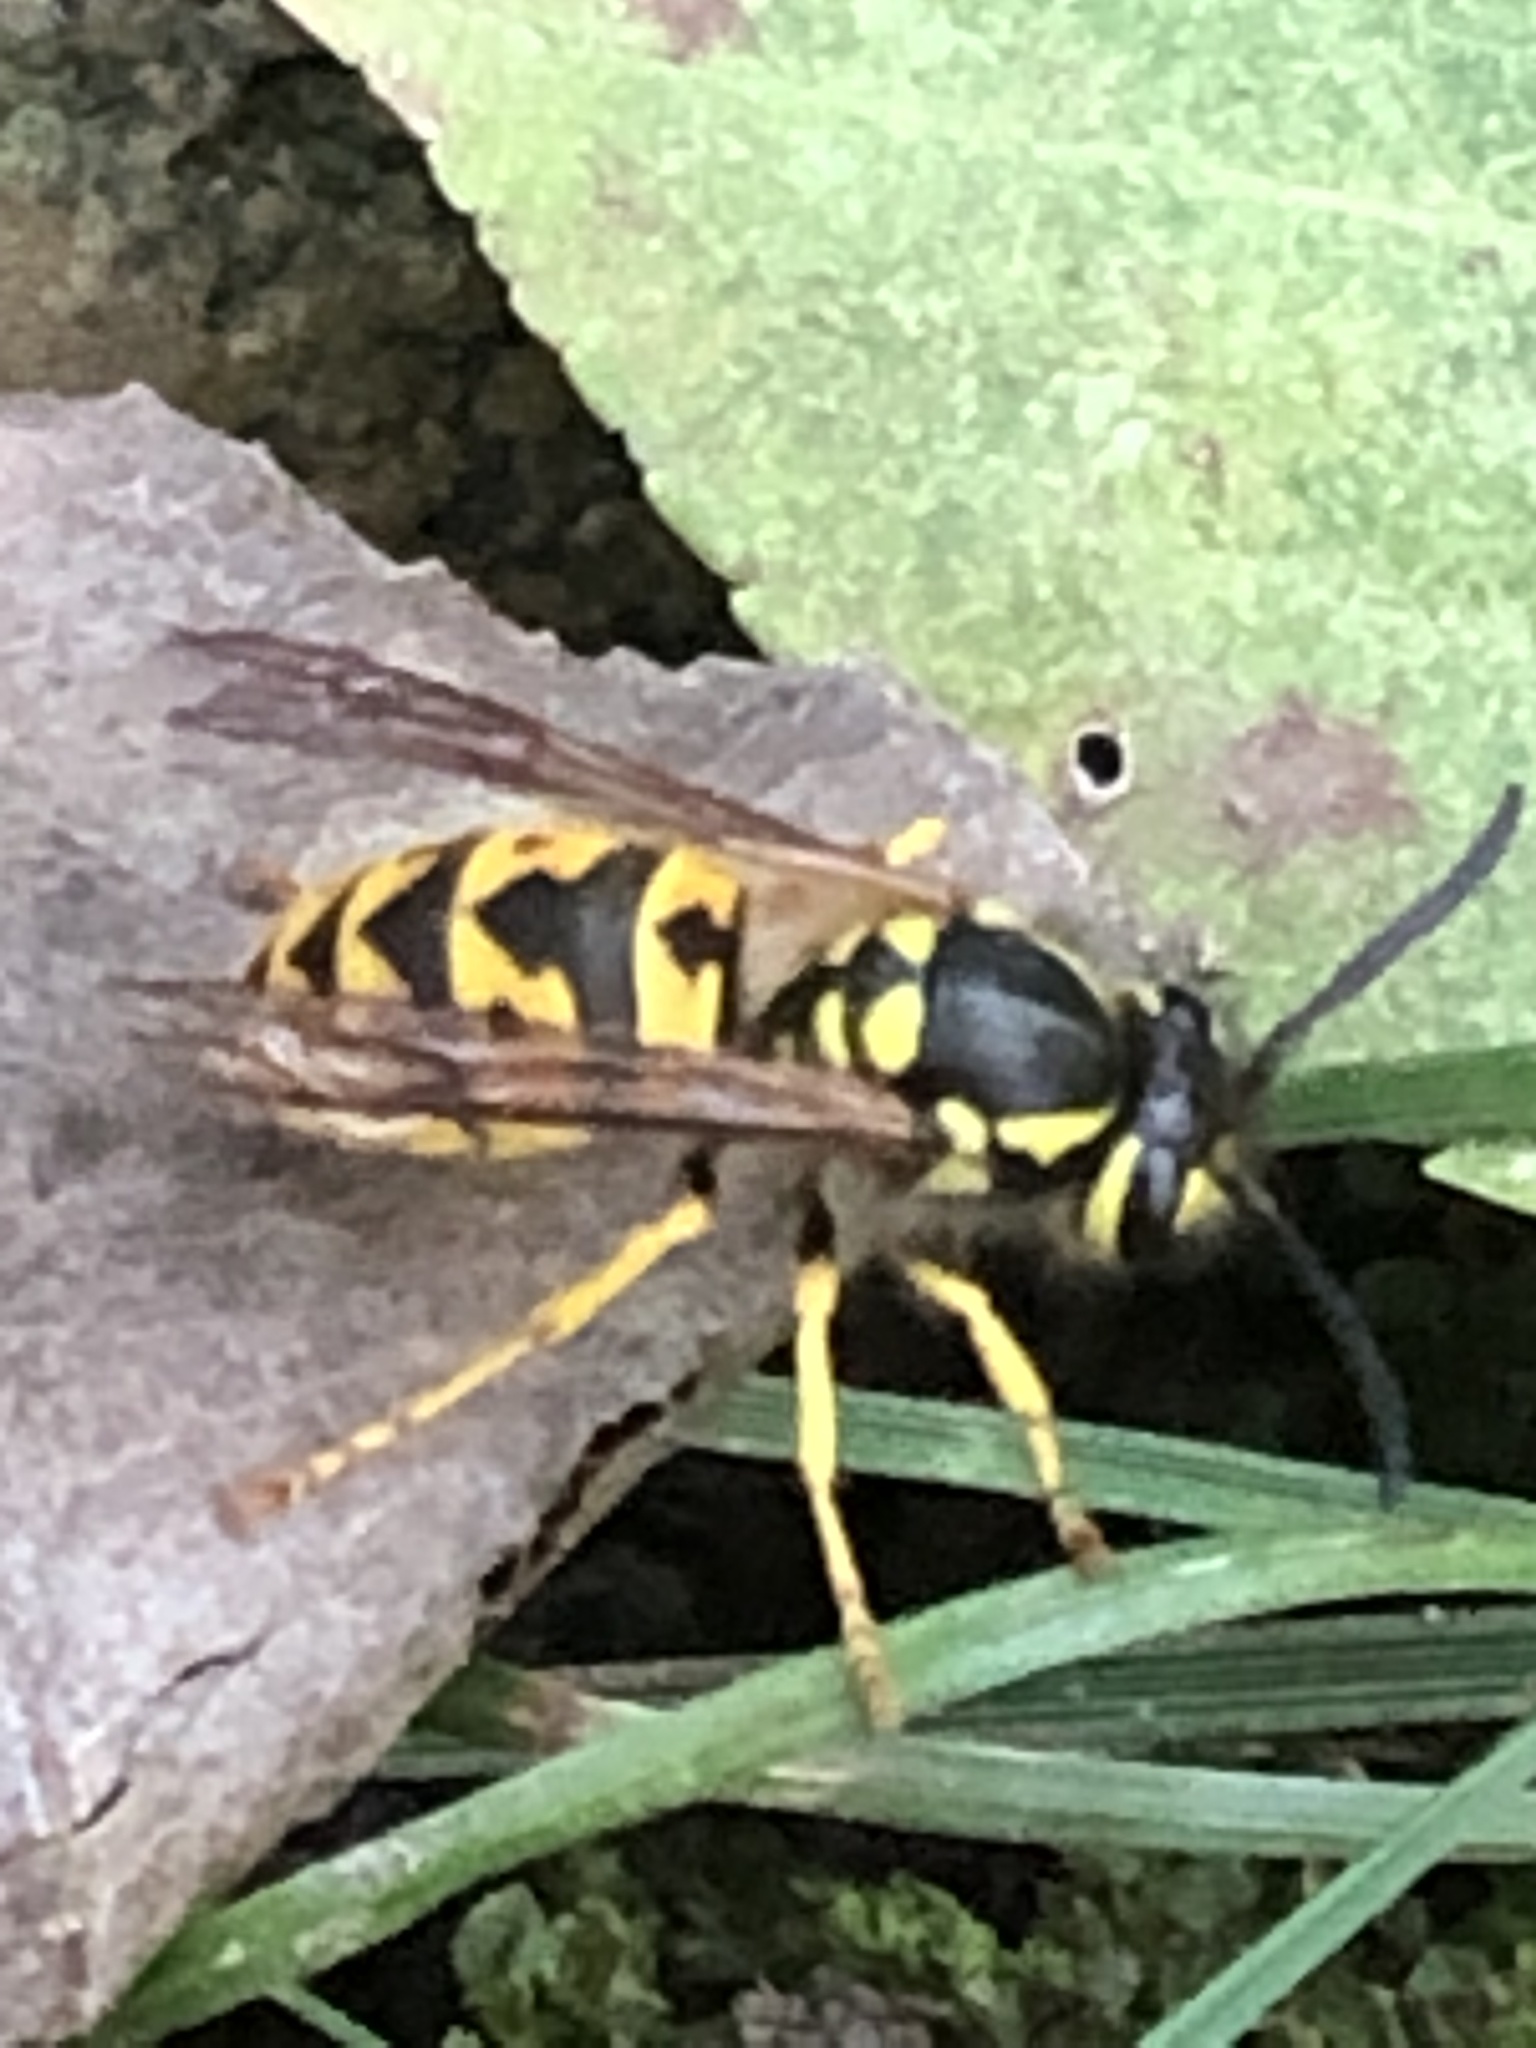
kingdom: Animalia
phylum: Arthropoda
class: Insecta
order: Hymenoptera
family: Vespidae
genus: Vespula
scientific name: Vespula germanica
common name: German wasp
